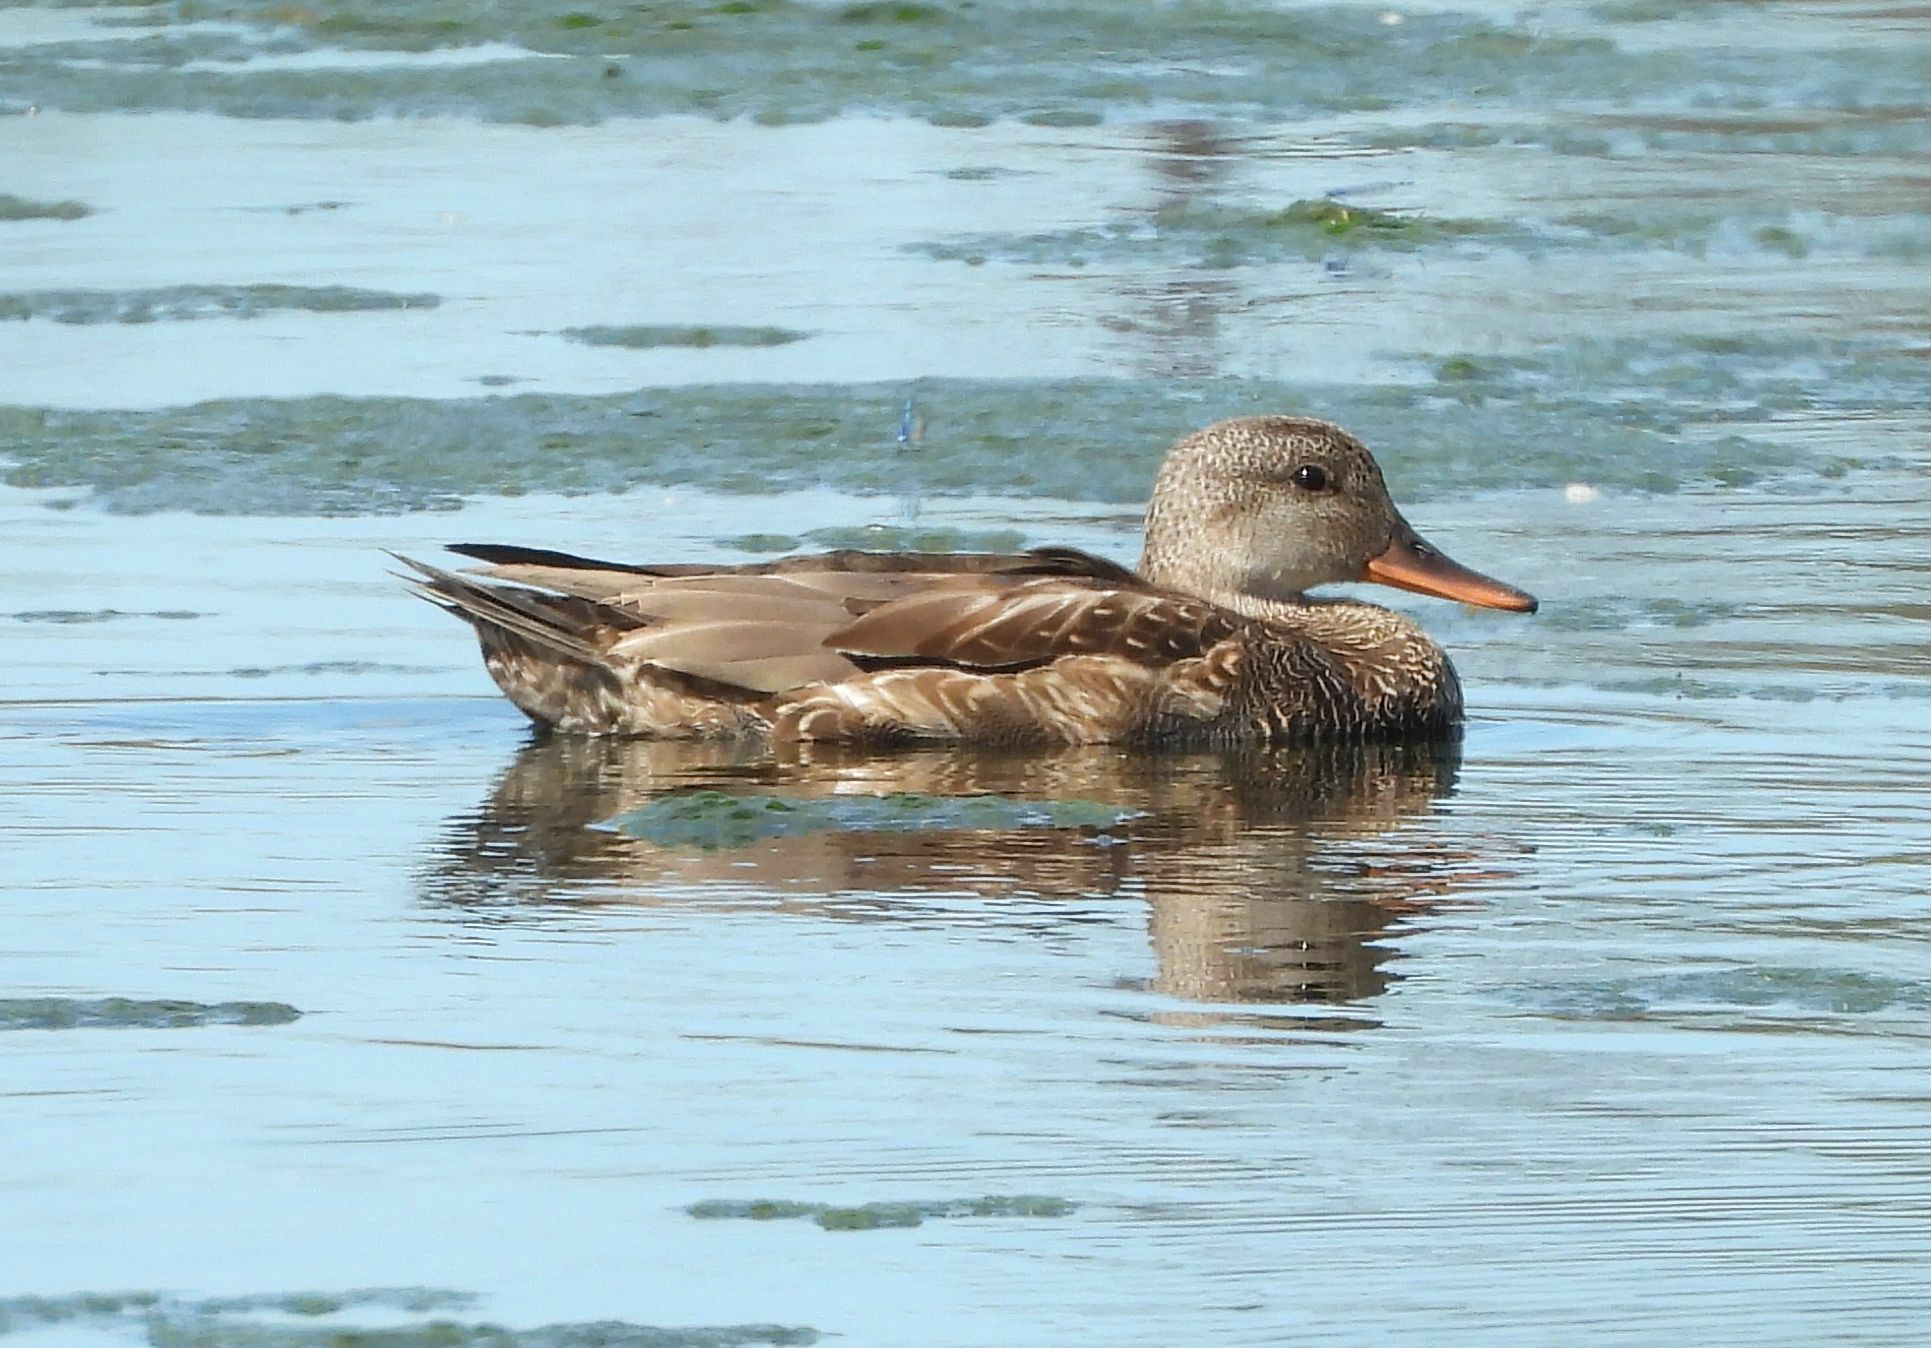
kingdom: Animalia
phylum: Chordata
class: Aves
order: Anseriformes
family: Anatidae
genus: Mareca
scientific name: Mareca strepera
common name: Gadwall
